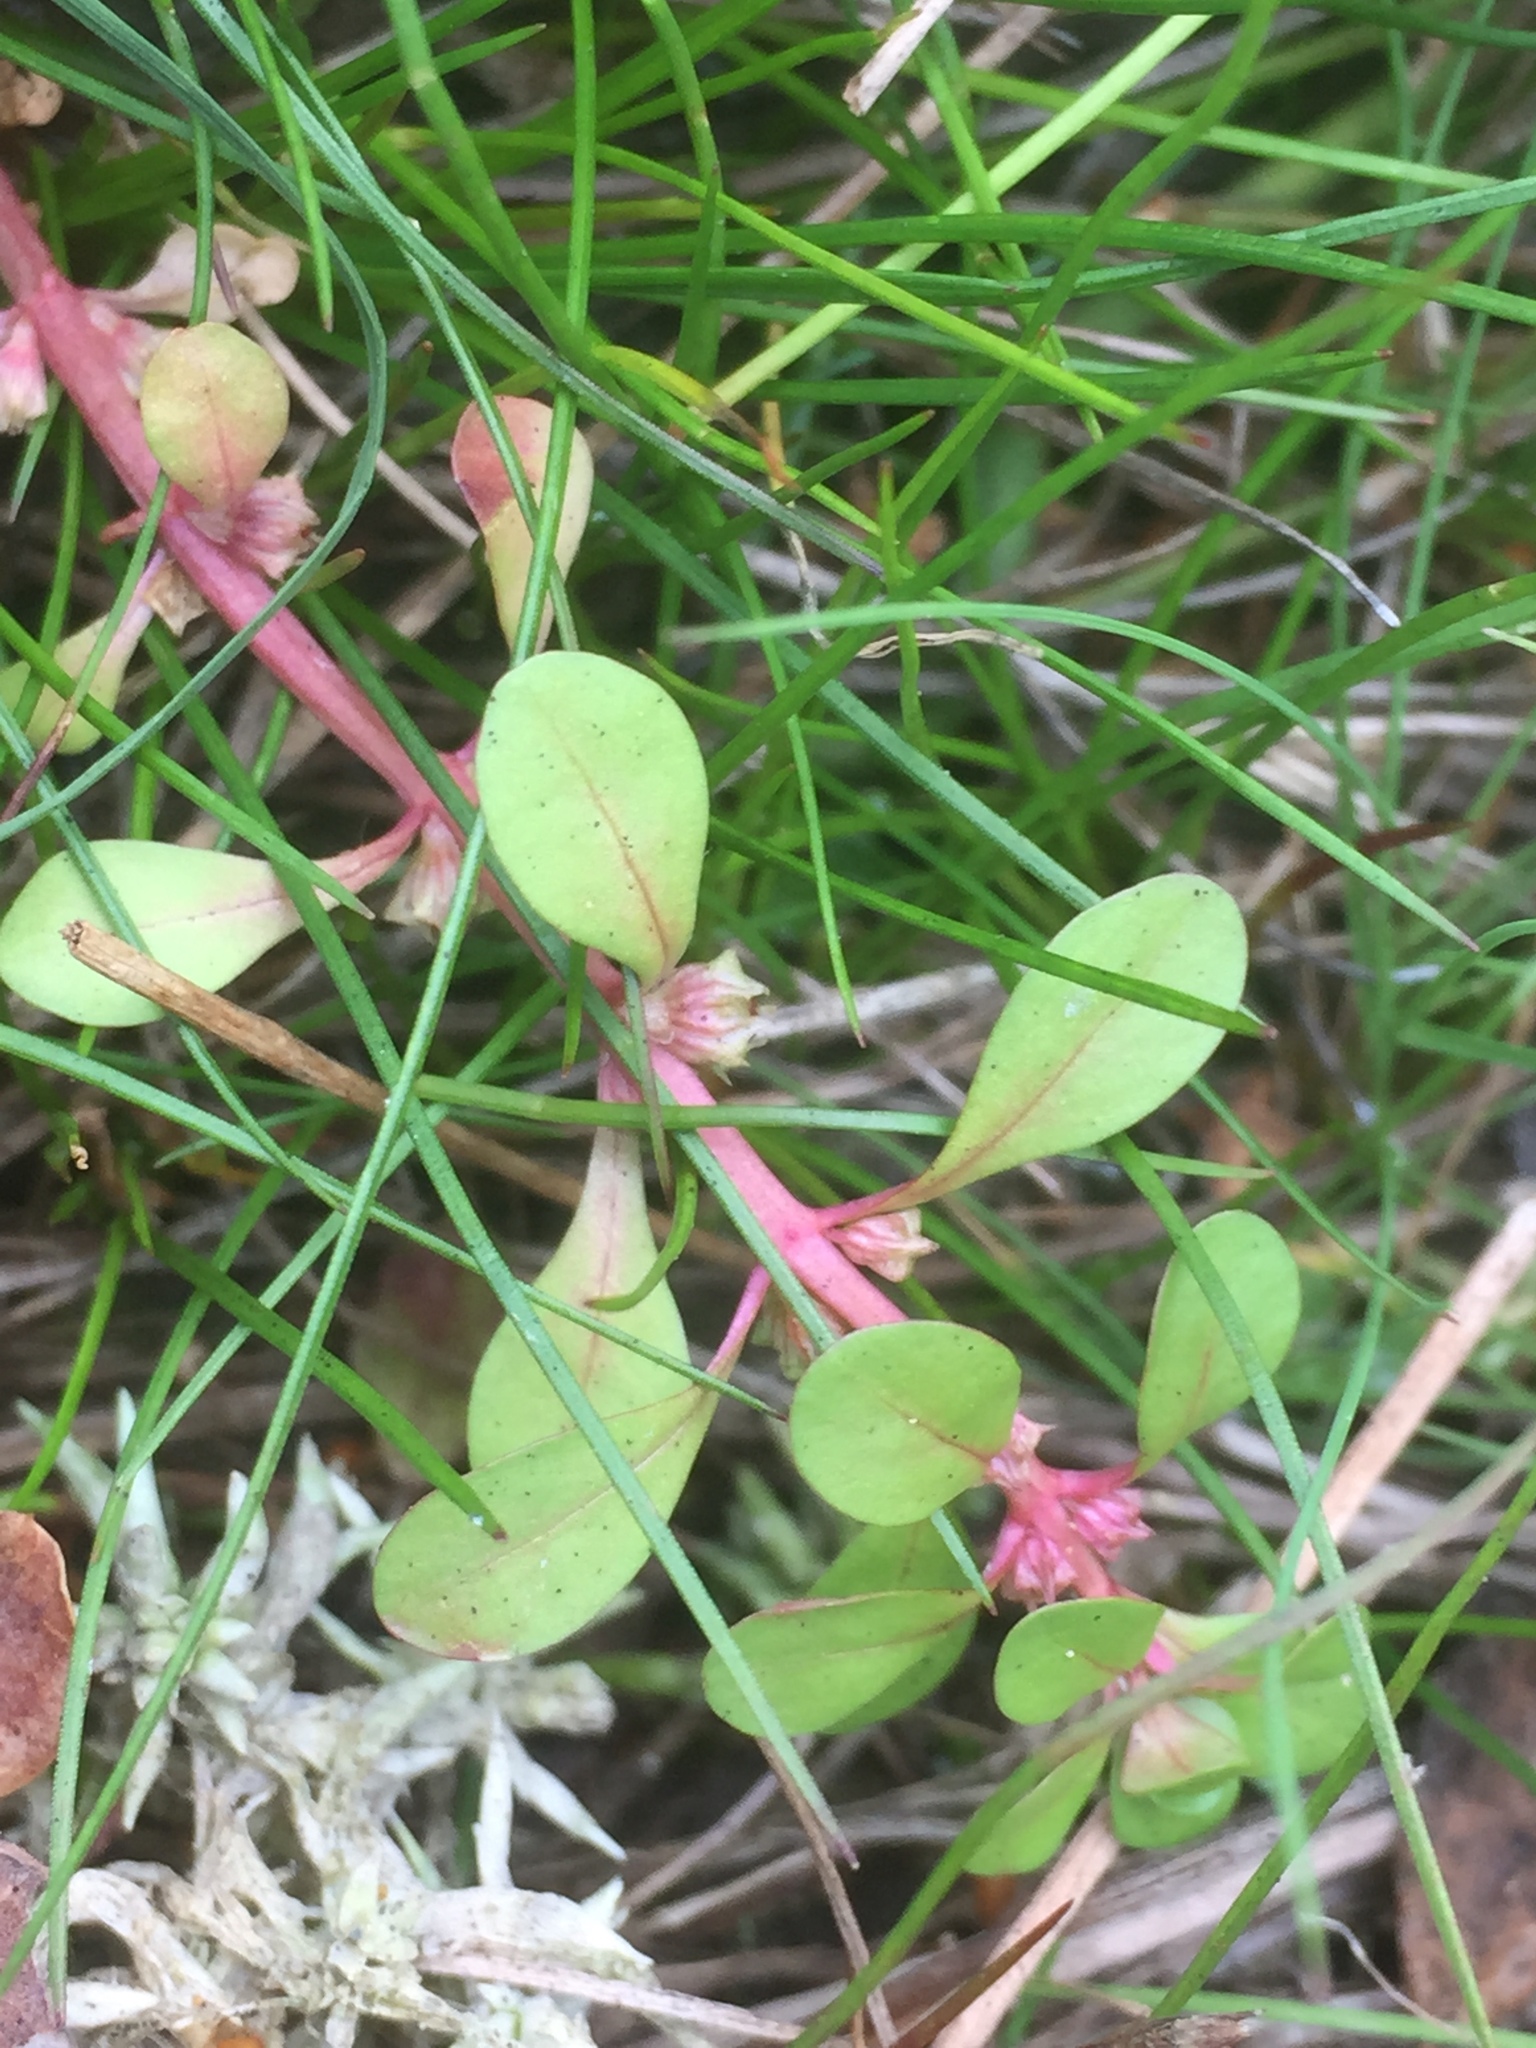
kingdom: Plantae
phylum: Tracheophyta
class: Magnoliopsida
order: Myrtales
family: Lythraceae
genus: Lythrum
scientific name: Lythrum portula
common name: Water purslane
